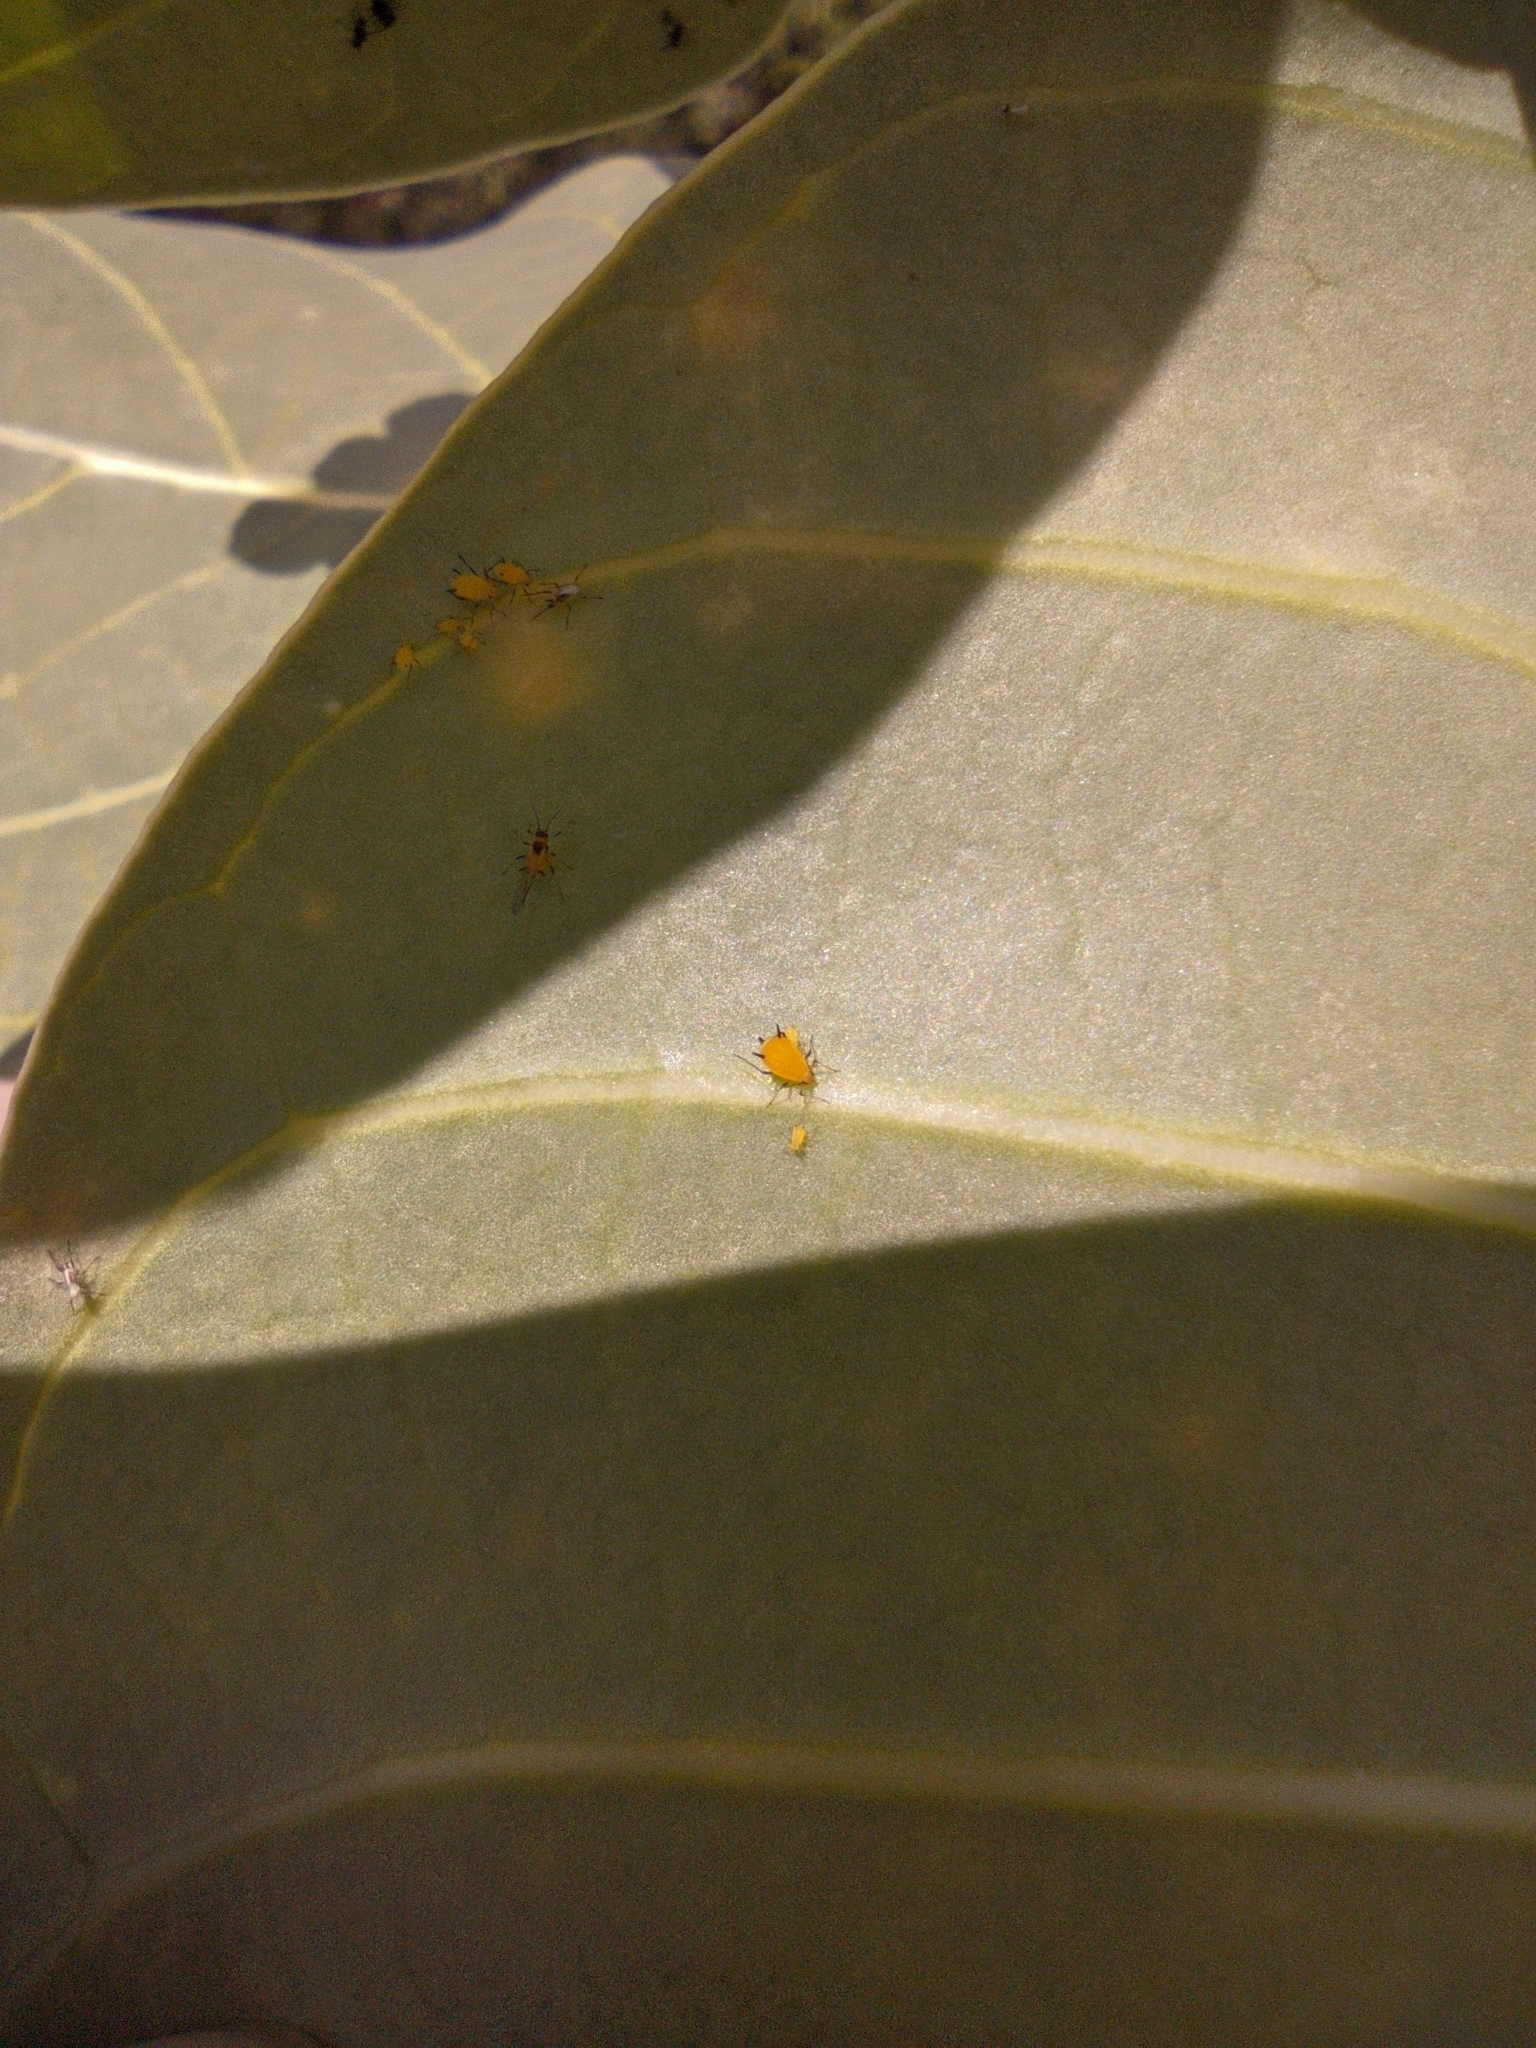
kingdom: Animalia
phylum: Arthropoda
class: Insecta
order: Hemiptera
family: Aphididae
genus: Aphis
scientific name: Aphis nerii
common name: Oleander aphid
